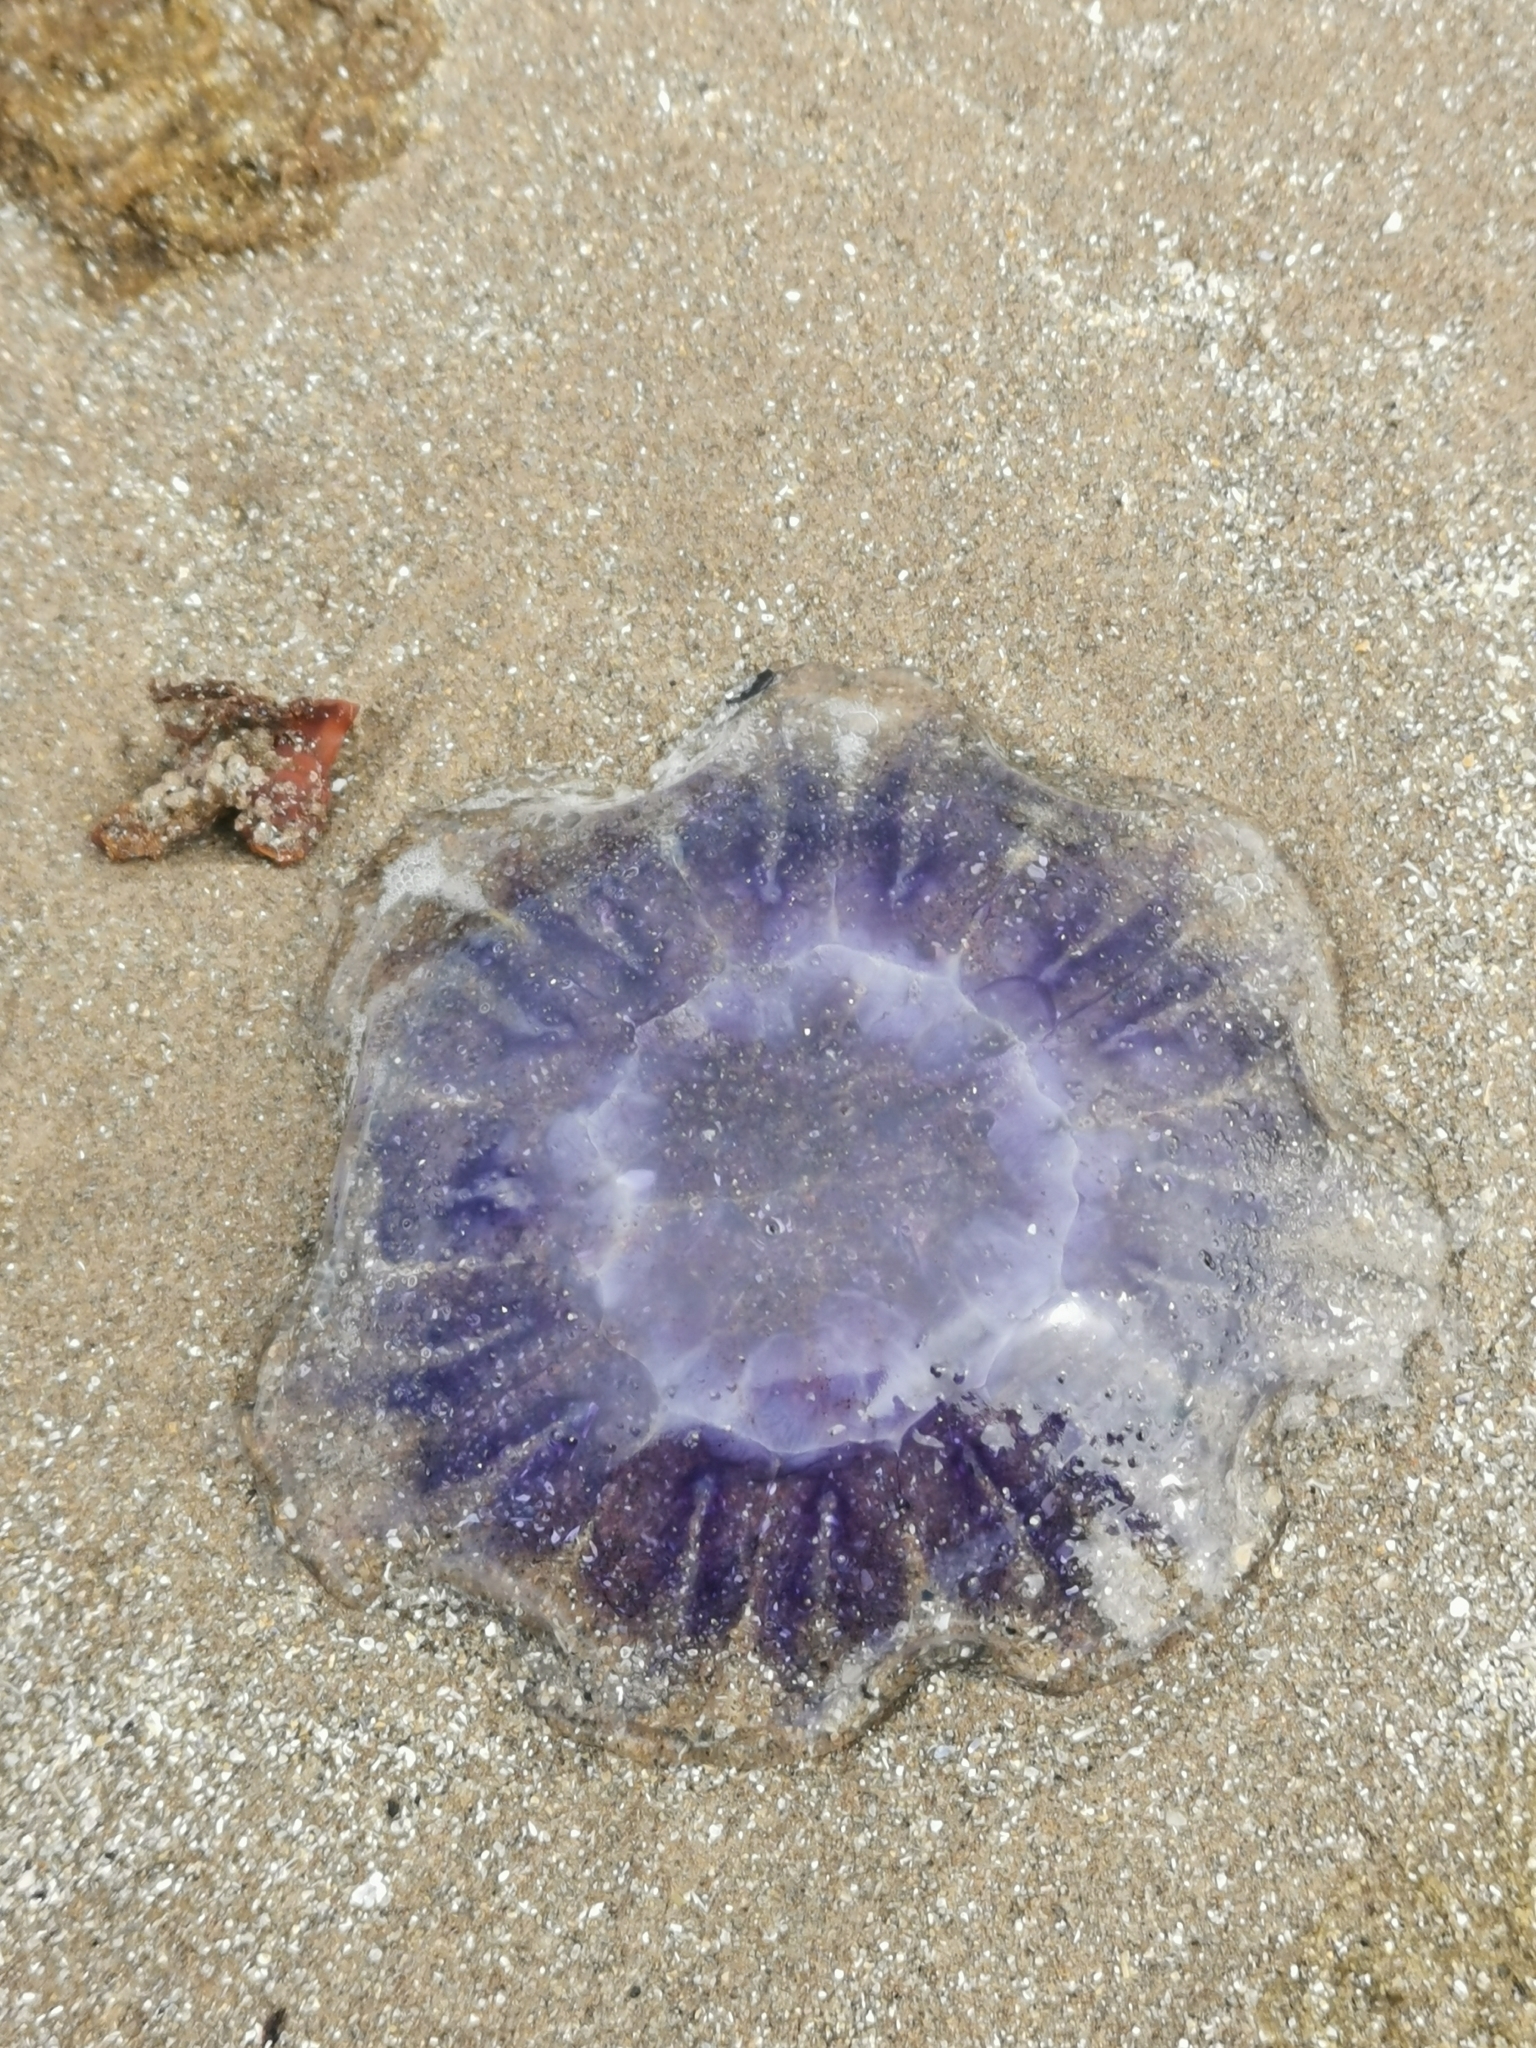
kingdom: Animalia
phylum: Cnidaria
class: Scyphozoa
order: Semaeostomeae
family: Cyaneidae
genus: Cyanea
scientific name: Cyanea lamarckii
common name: Blue jellyfish
